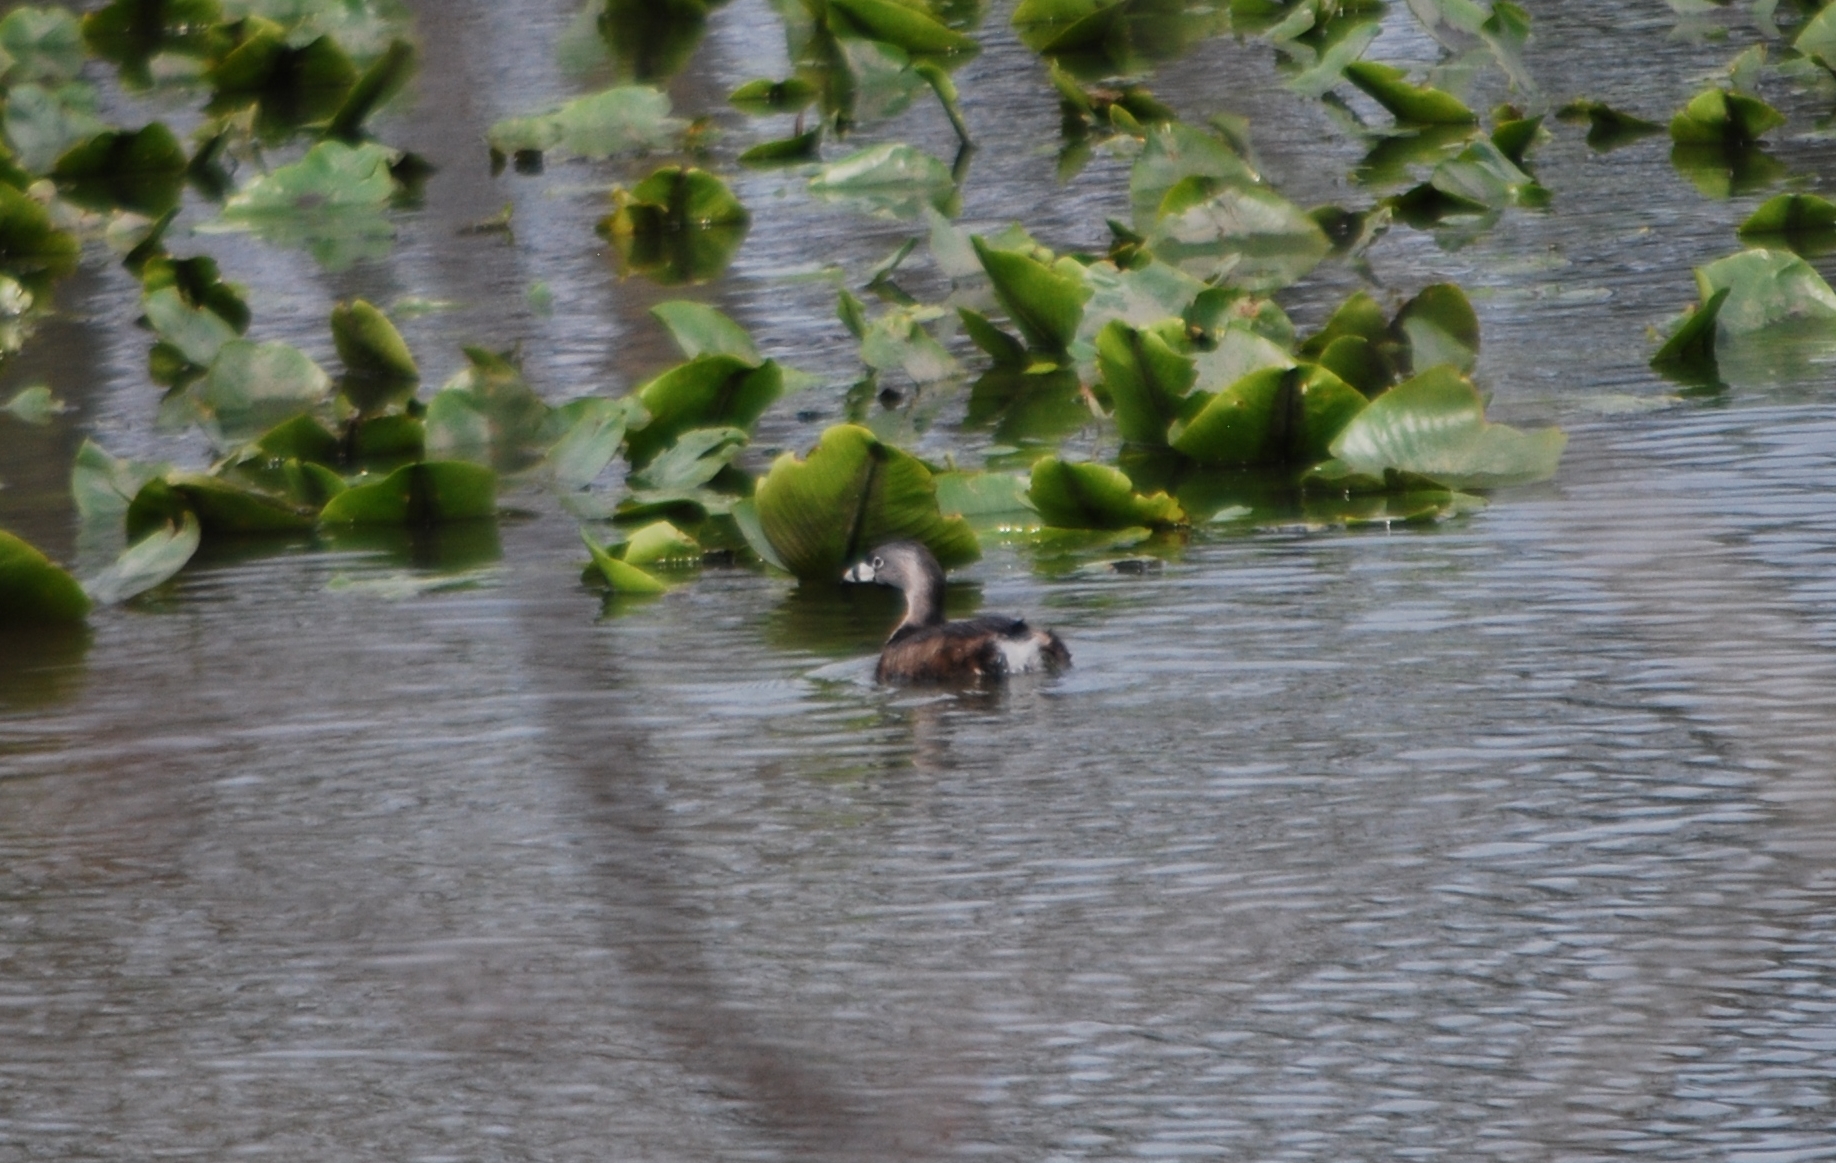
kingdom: Animalia
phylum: Chordata
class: Aves
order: Podicipediformes
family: Podicipedidae
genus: Podilymbus
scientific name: Podilymbus podiceps
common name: Pied-billed grebe
